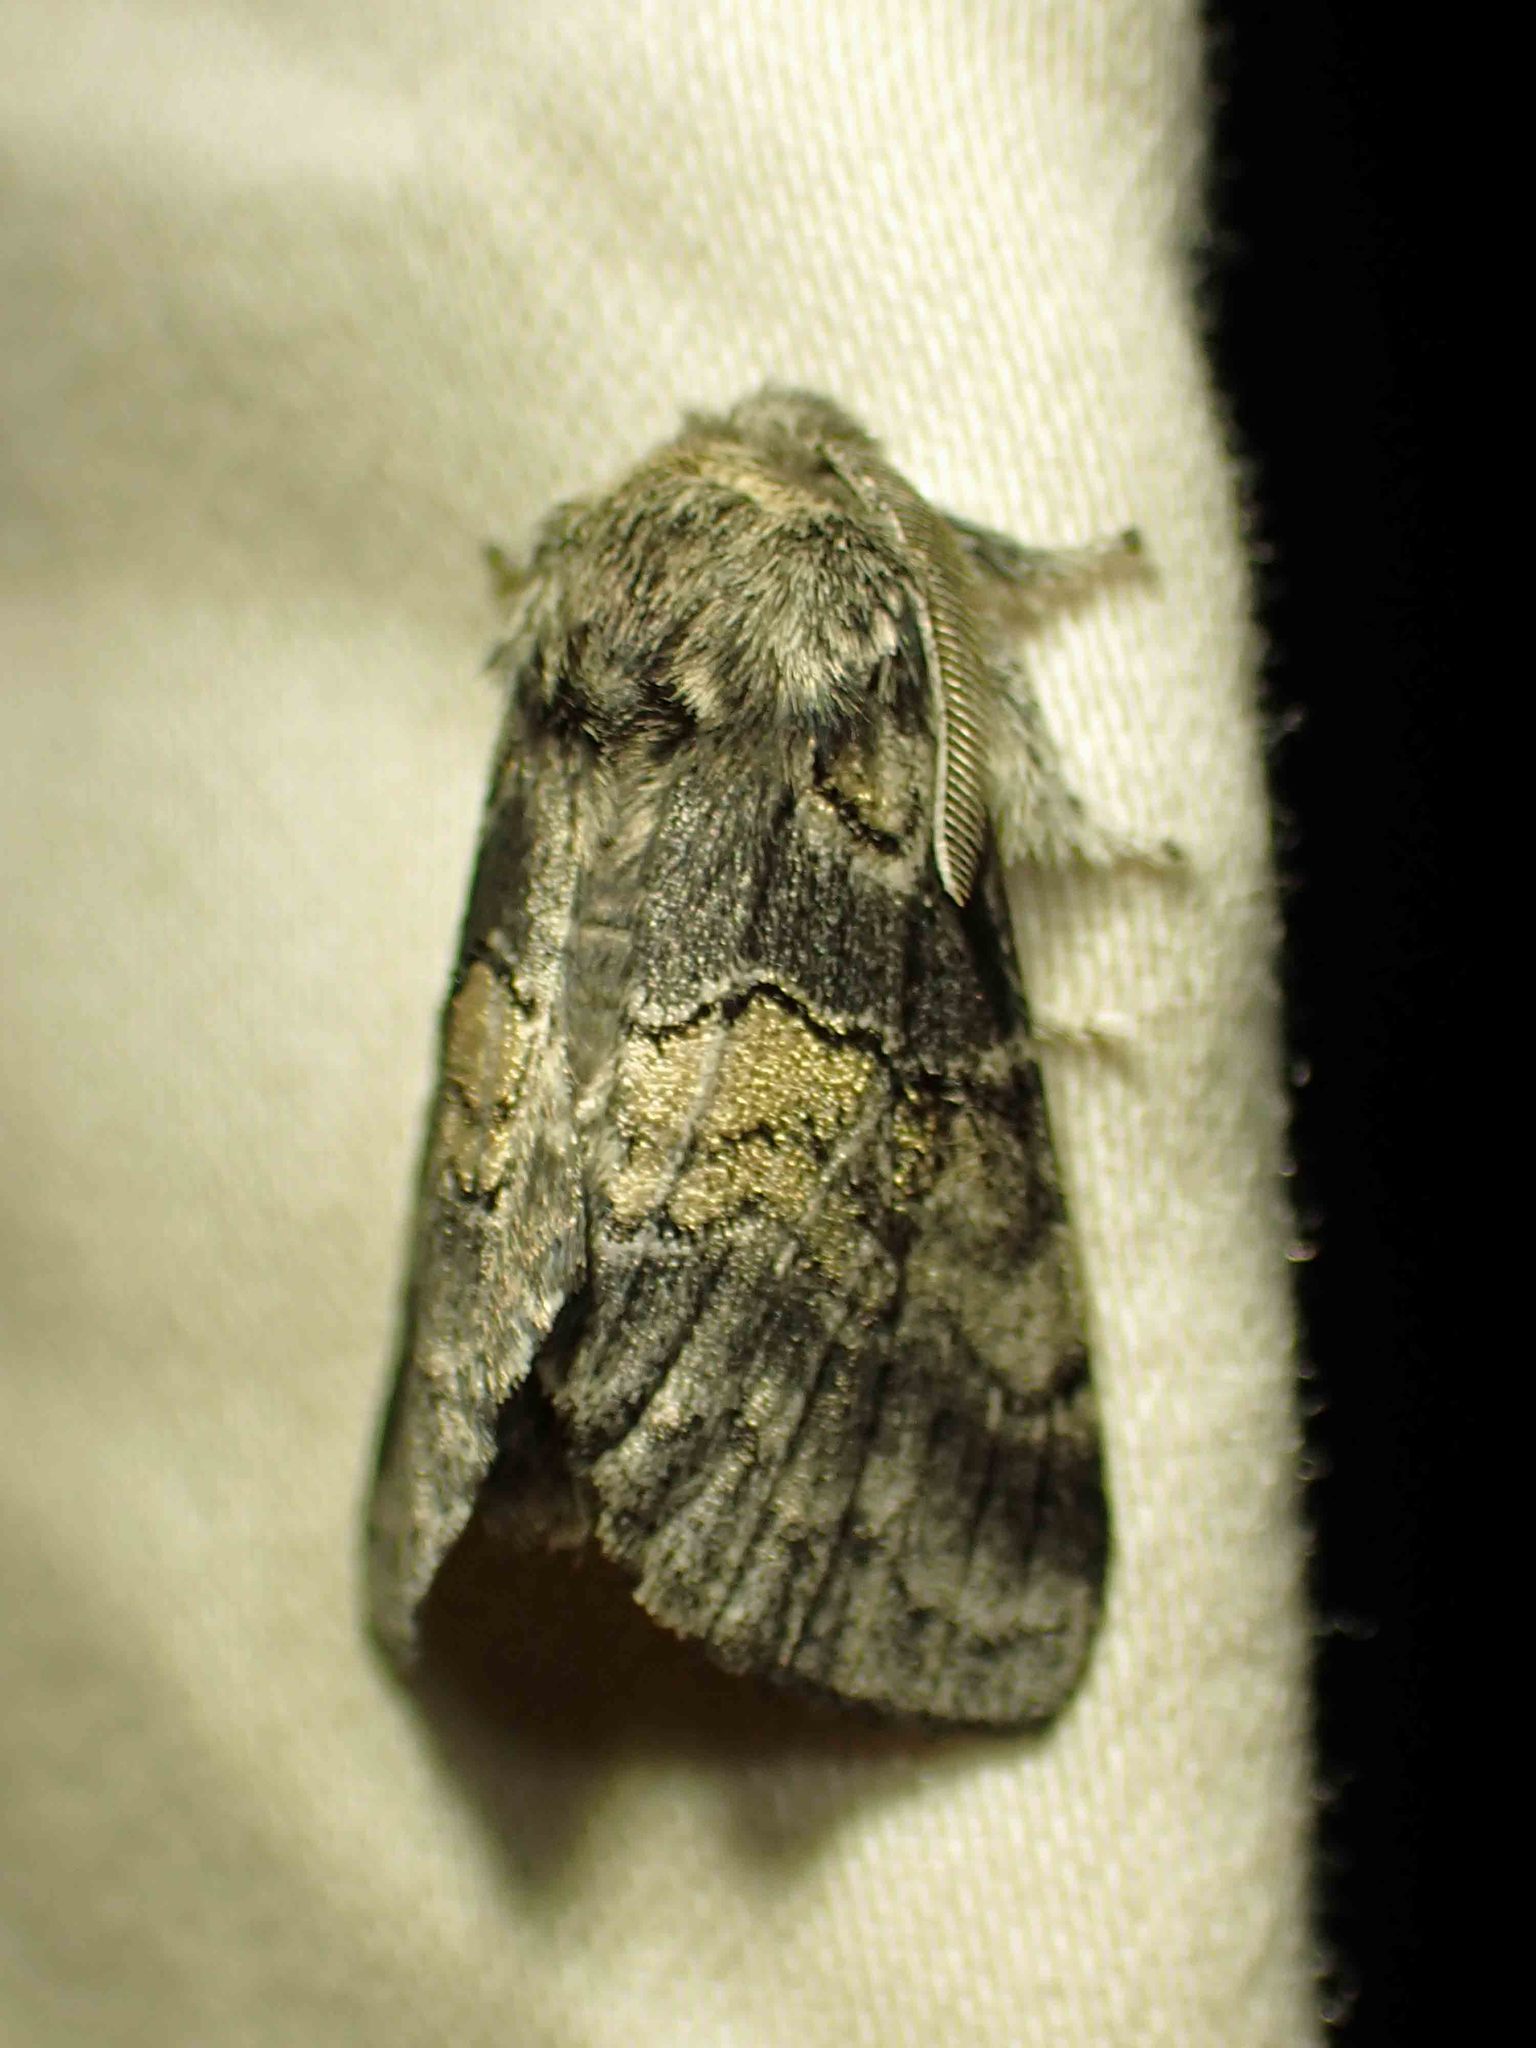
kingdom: Animalia
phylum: Arthropoda
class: Insecta
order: Lepidoptera
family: Notodontidae
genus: Gluphisia
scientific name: Gluphisia septentrionis
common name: Common gluphisia
